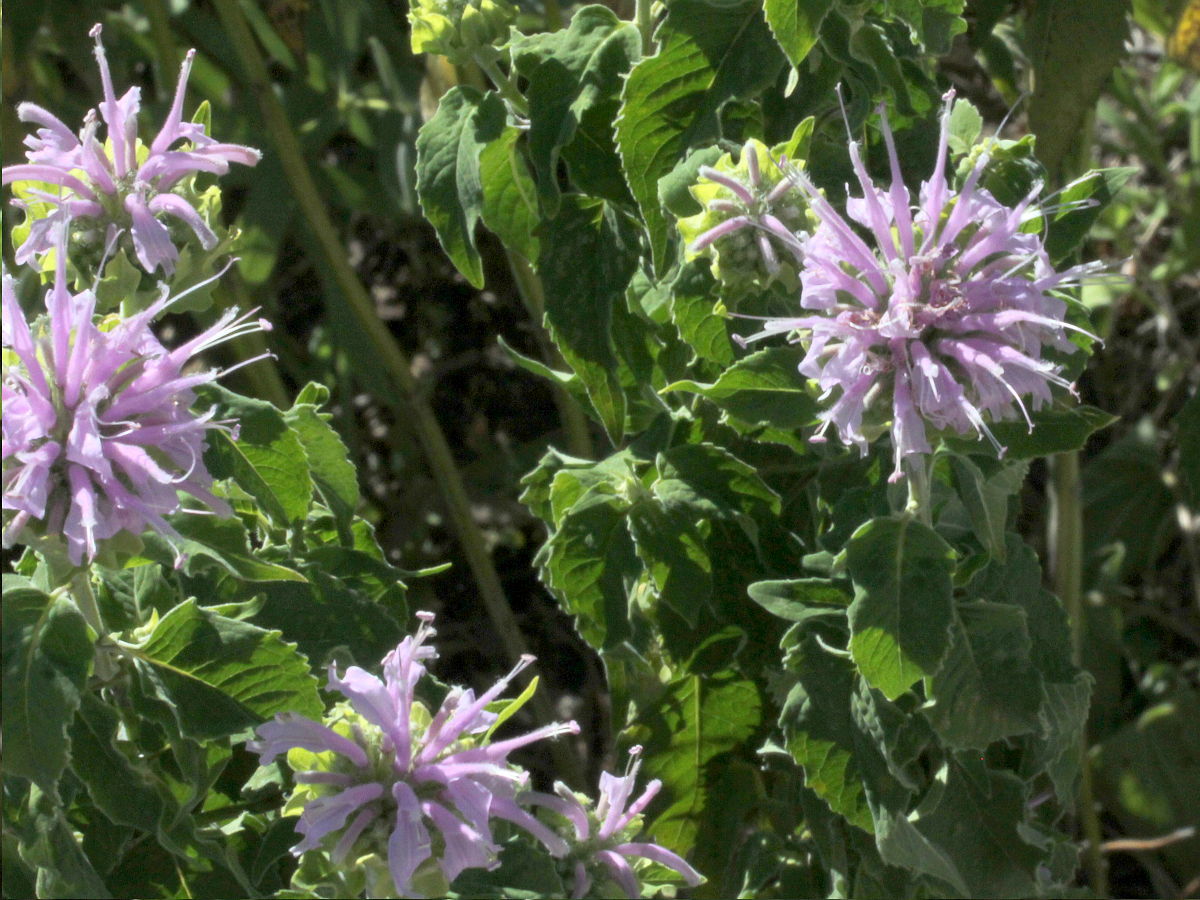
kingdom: Plantae
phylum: Tracheophyta
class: Magnoliopsida
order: Lamiales
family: Lamiaceae
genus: Monarda
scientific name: Monarda fistulosa
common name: Purple beebalm
